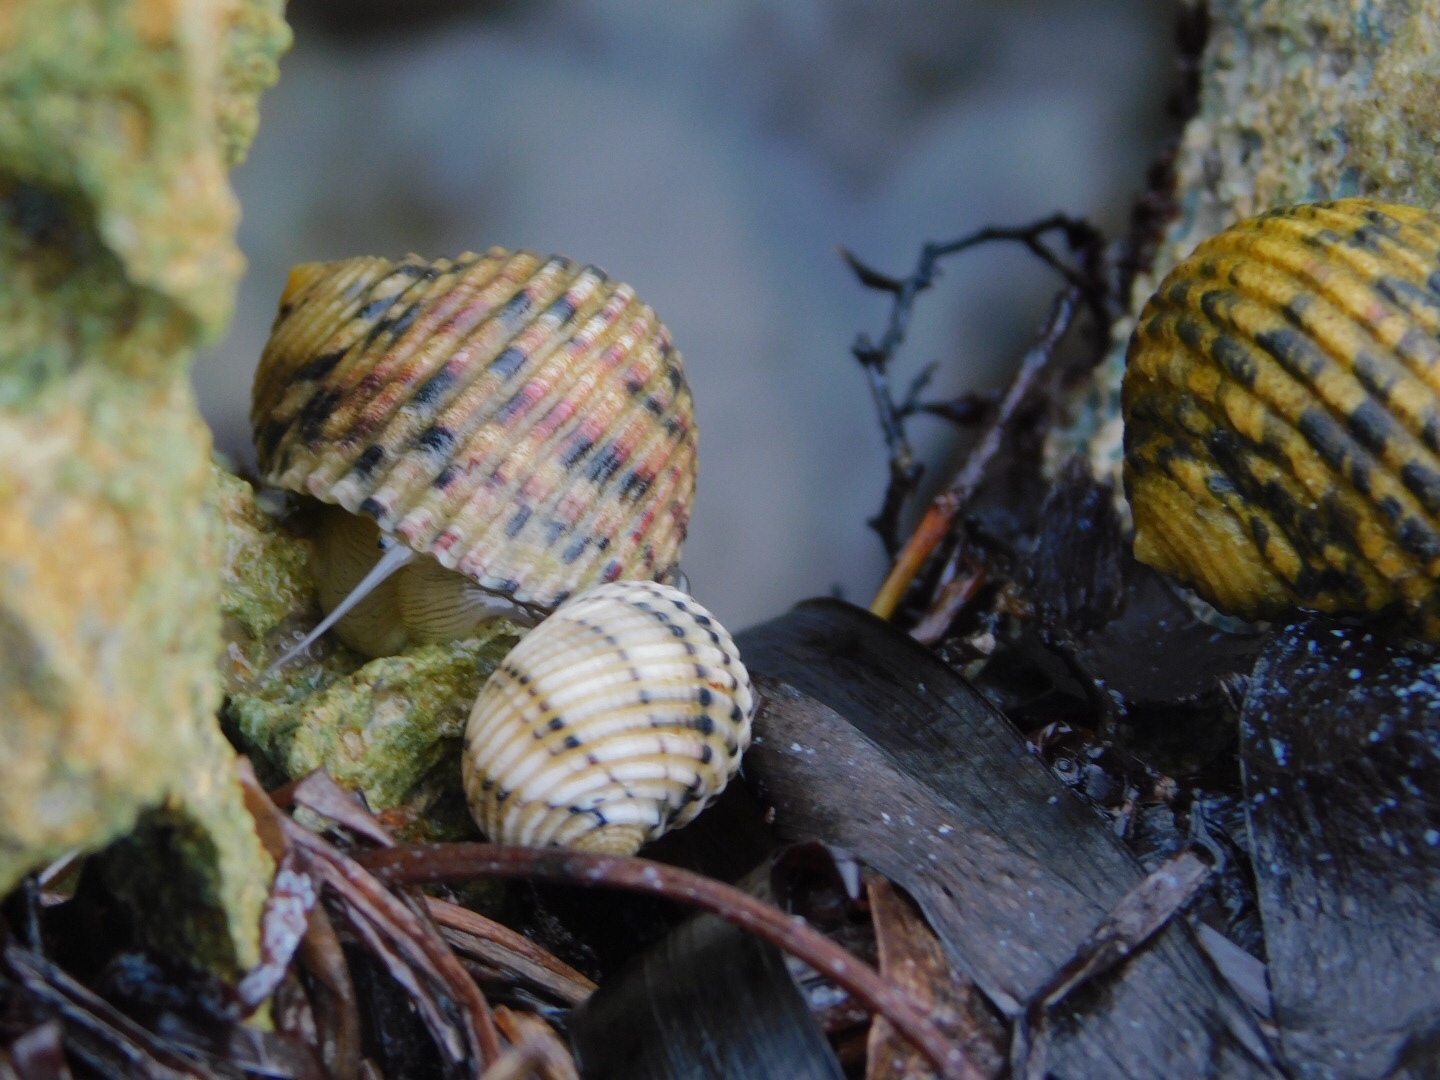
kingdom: Animalia
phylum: Mollusca
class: Gastropoda
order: Cycloneritida
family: Neritidae
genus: Nerita
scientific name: Nerita versicolor
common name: Four-tooth nerite
